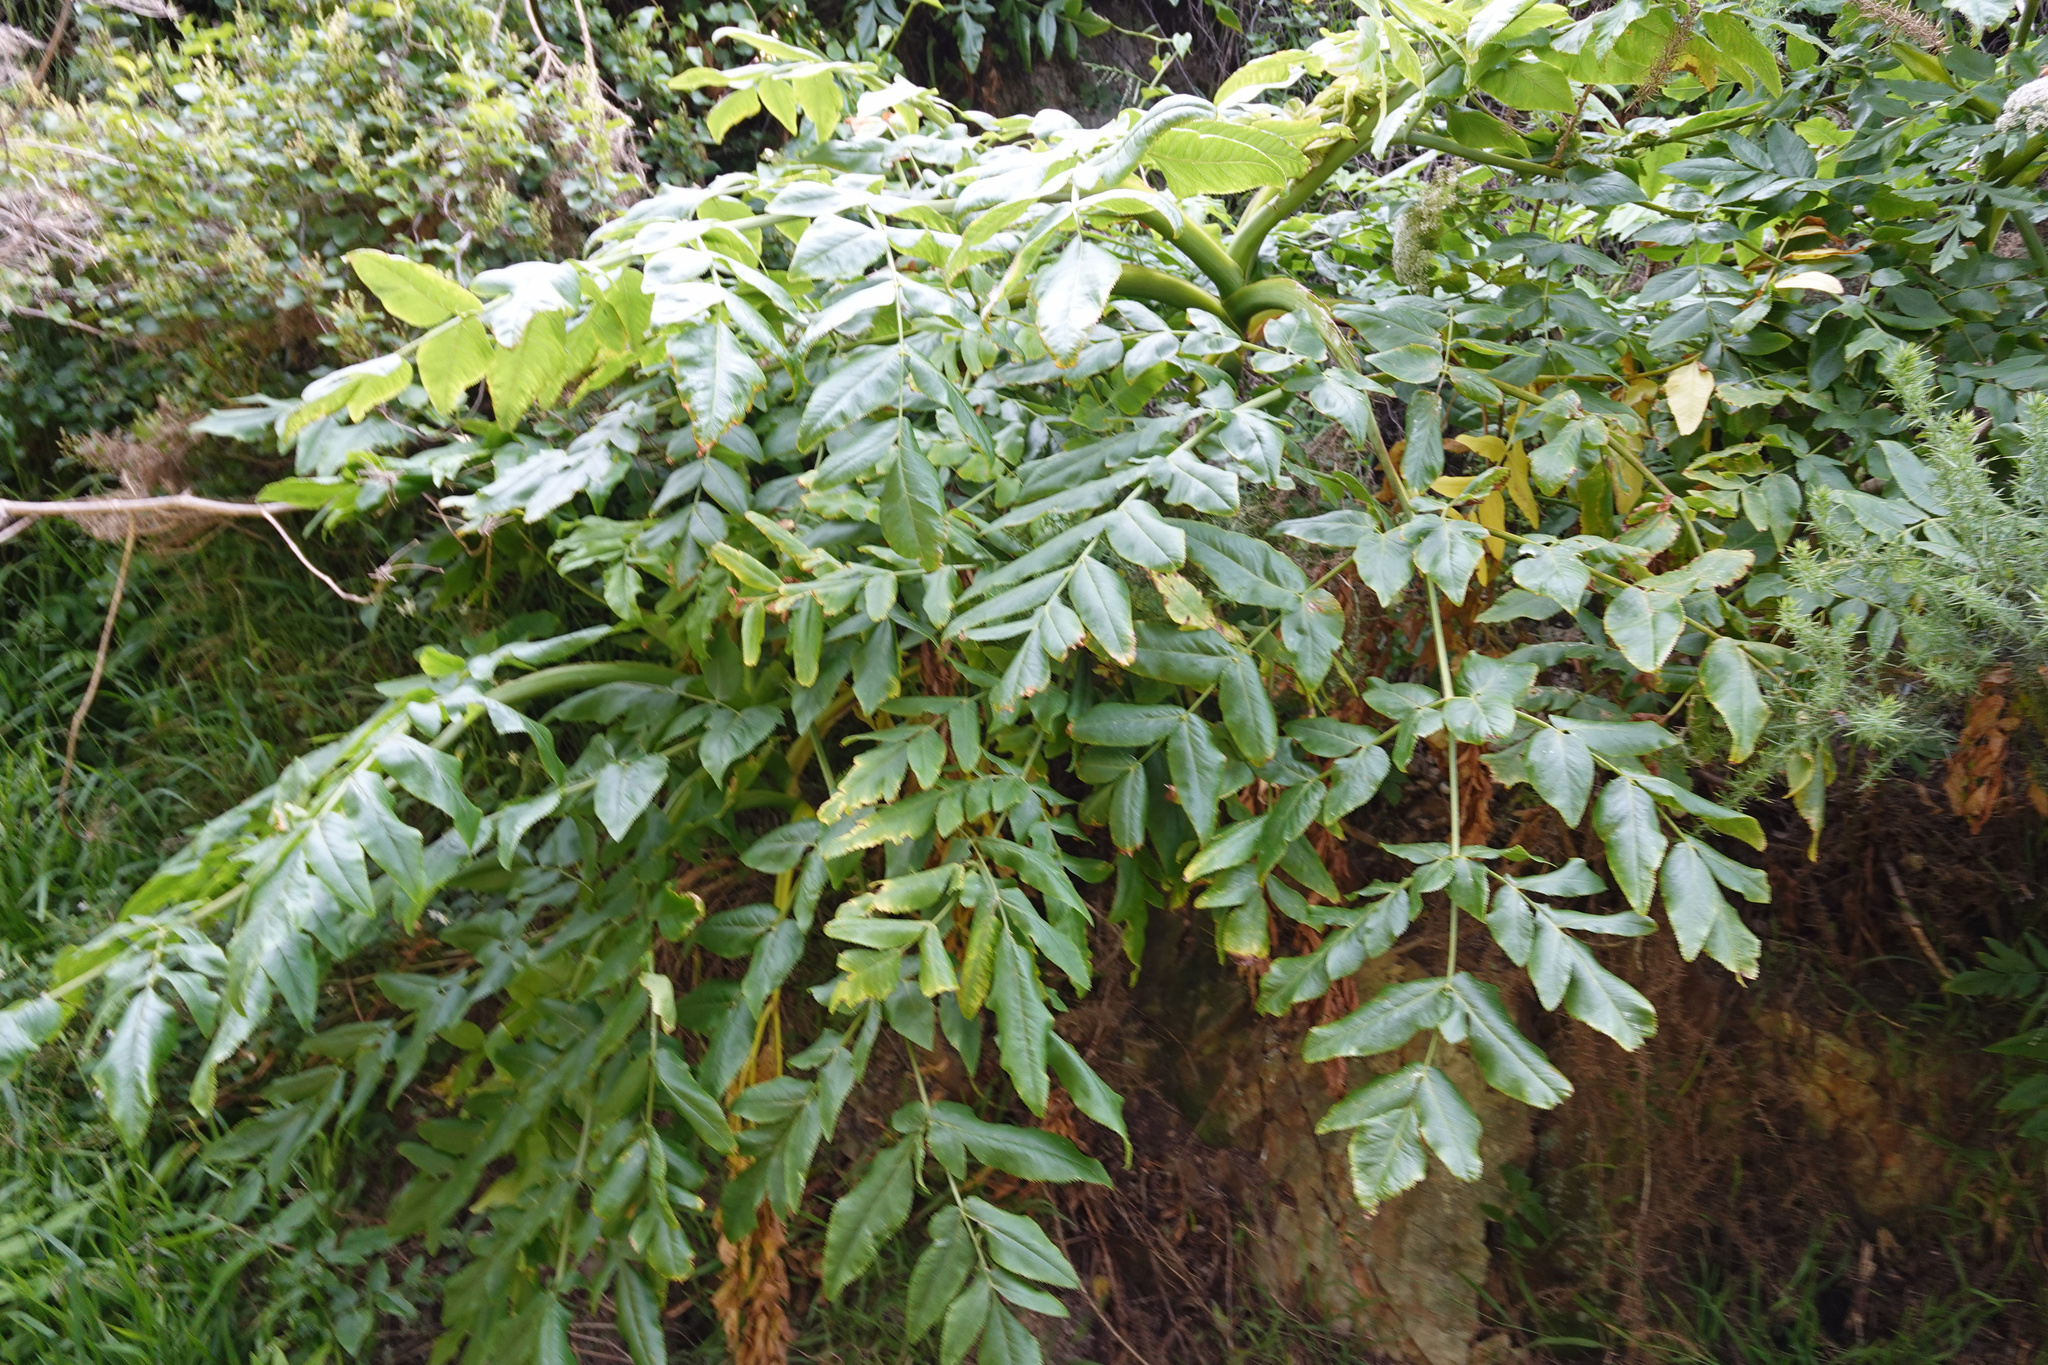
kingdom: Plantae
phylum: Tracheophyta
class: Magnoliopsida
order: Apiales
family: Apiaceae
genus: Daucus
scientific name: Daucus decipiens
